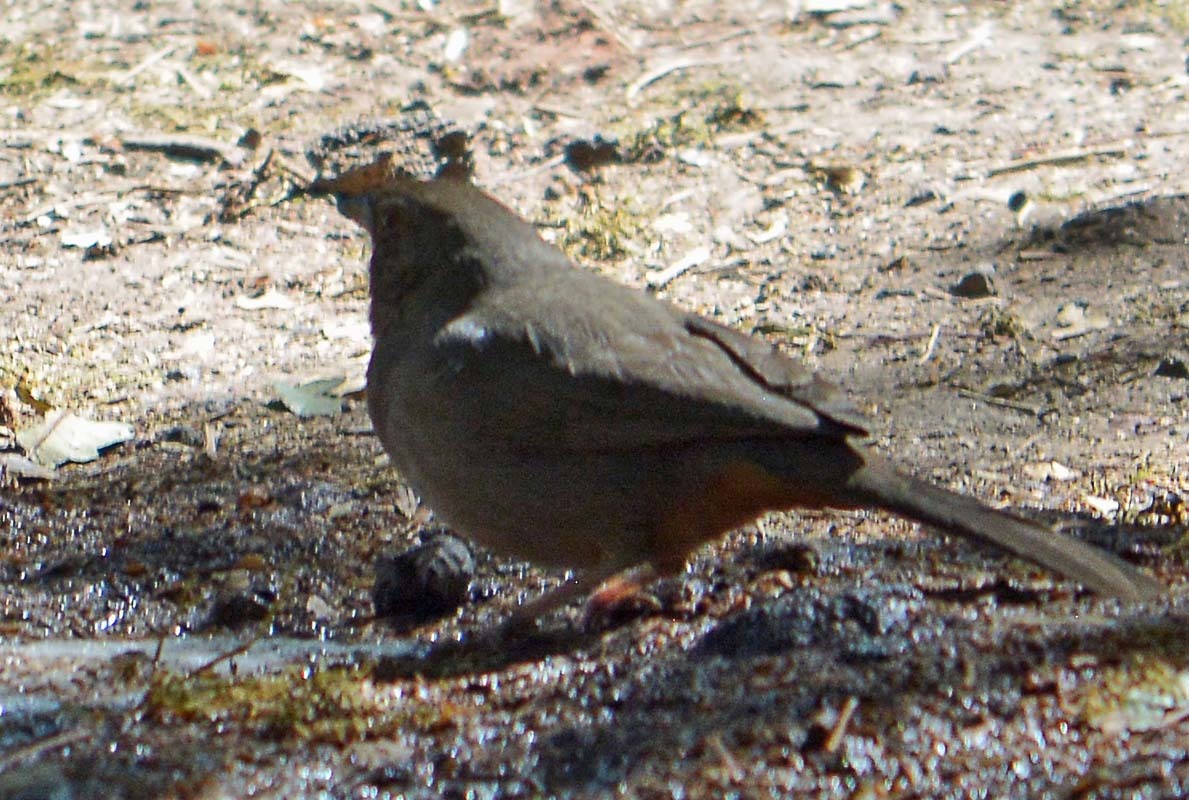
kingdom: Animalia
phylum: Chordata
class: Aves
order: Passeriformes
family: Passerellidae
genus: Melozone
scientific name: Melozone fusca
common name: Canyon towhee
